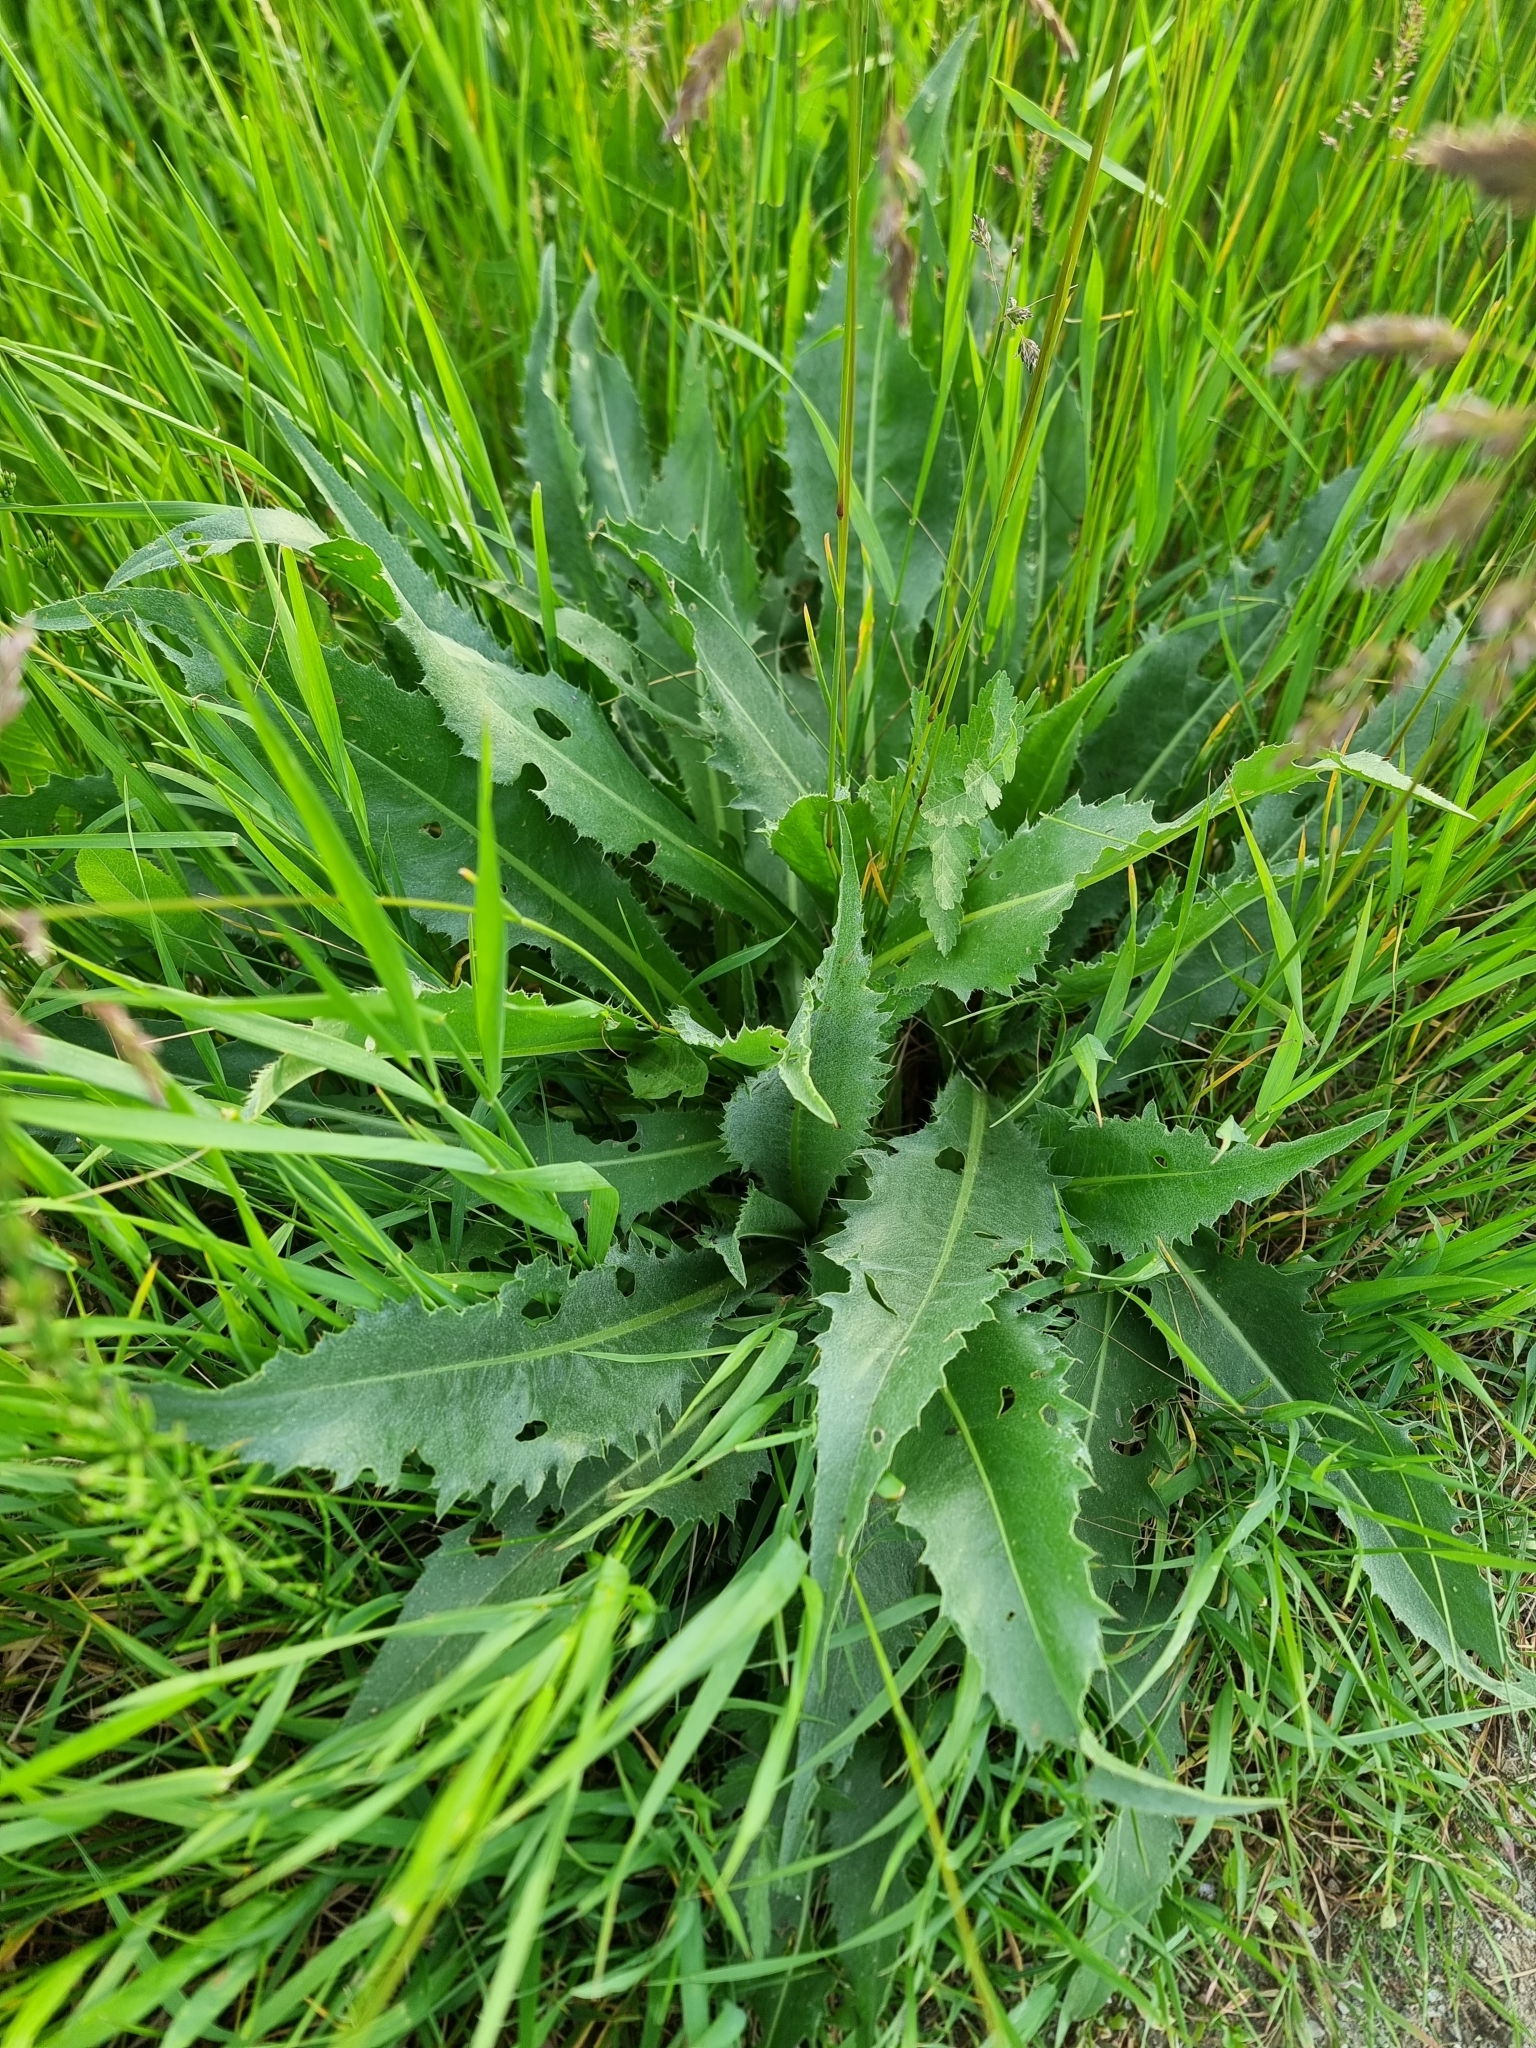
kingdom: Plantae
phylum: Tracheophyta
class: Magnoliopsida
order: Asterales
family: Asteraceae
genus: Cirsium
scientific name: Cirsium canum
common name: Queen anne's thistle
